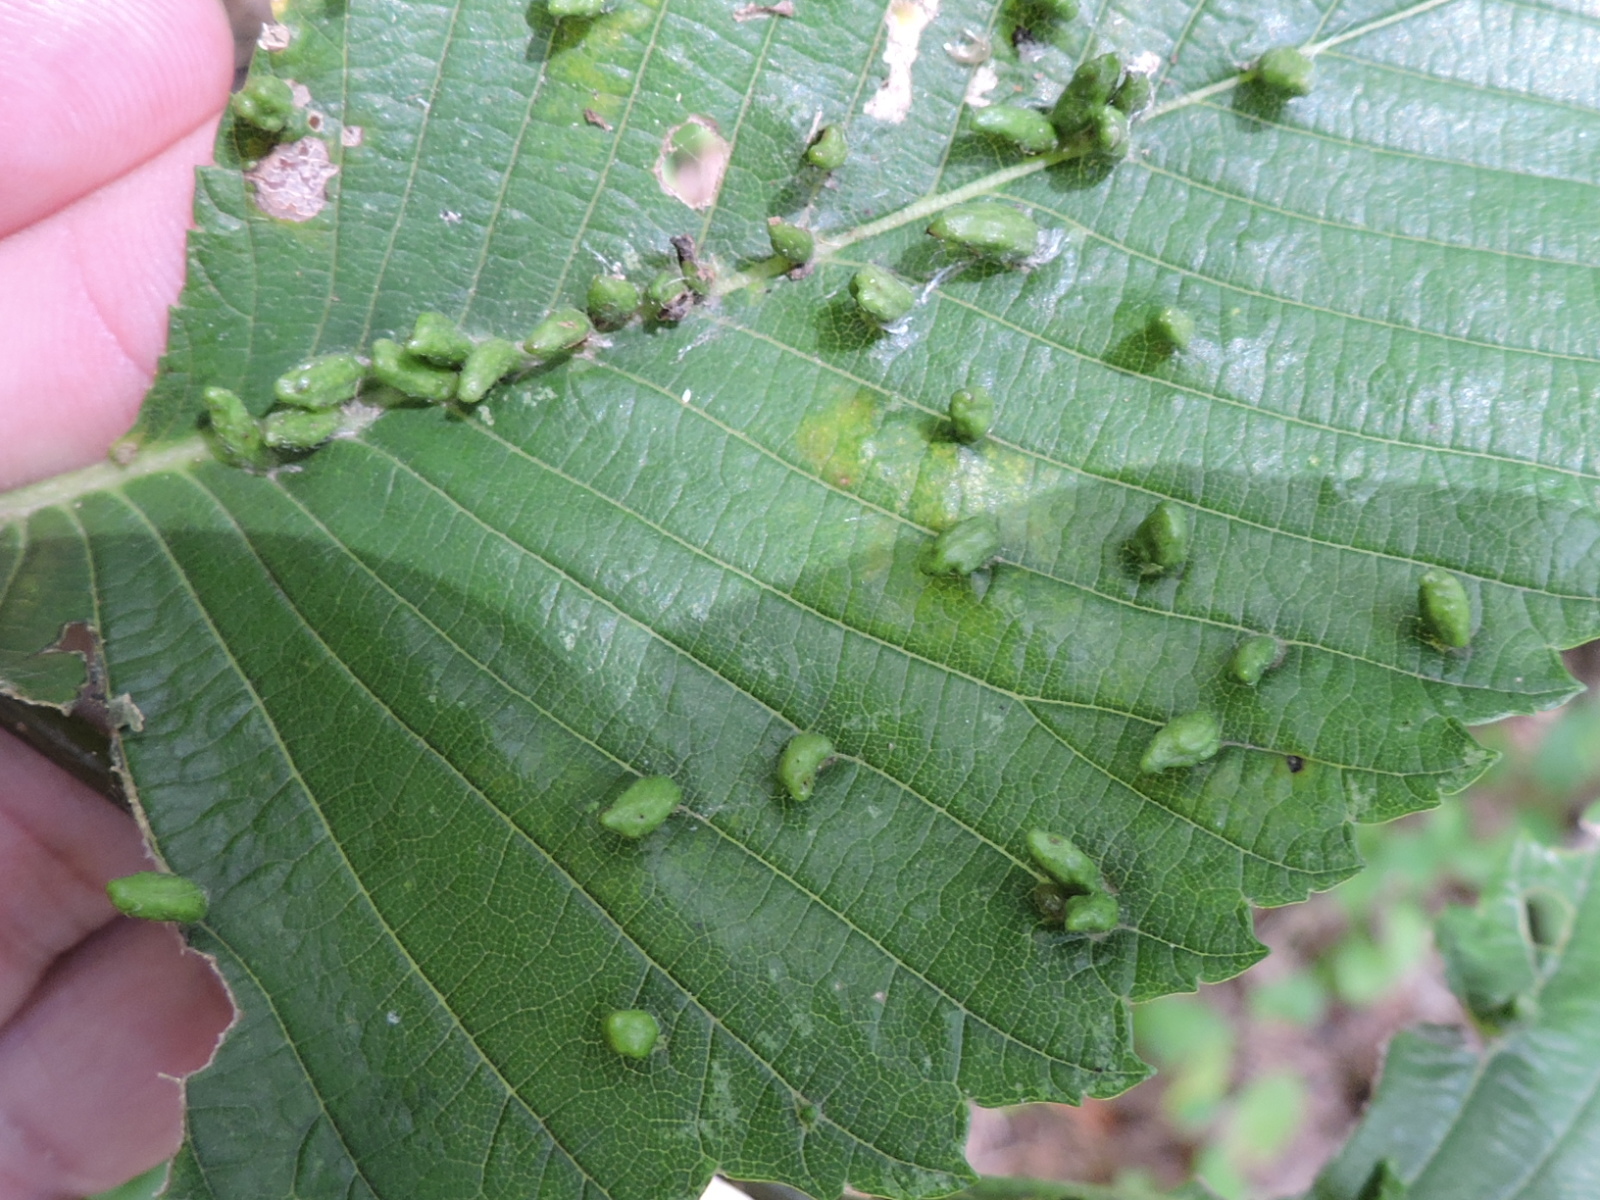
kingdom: Animalia
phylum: Arthropoda
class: Arachnida
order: Trombidiformes
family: Eriophyidae
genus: Aceria
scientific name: Aceria
